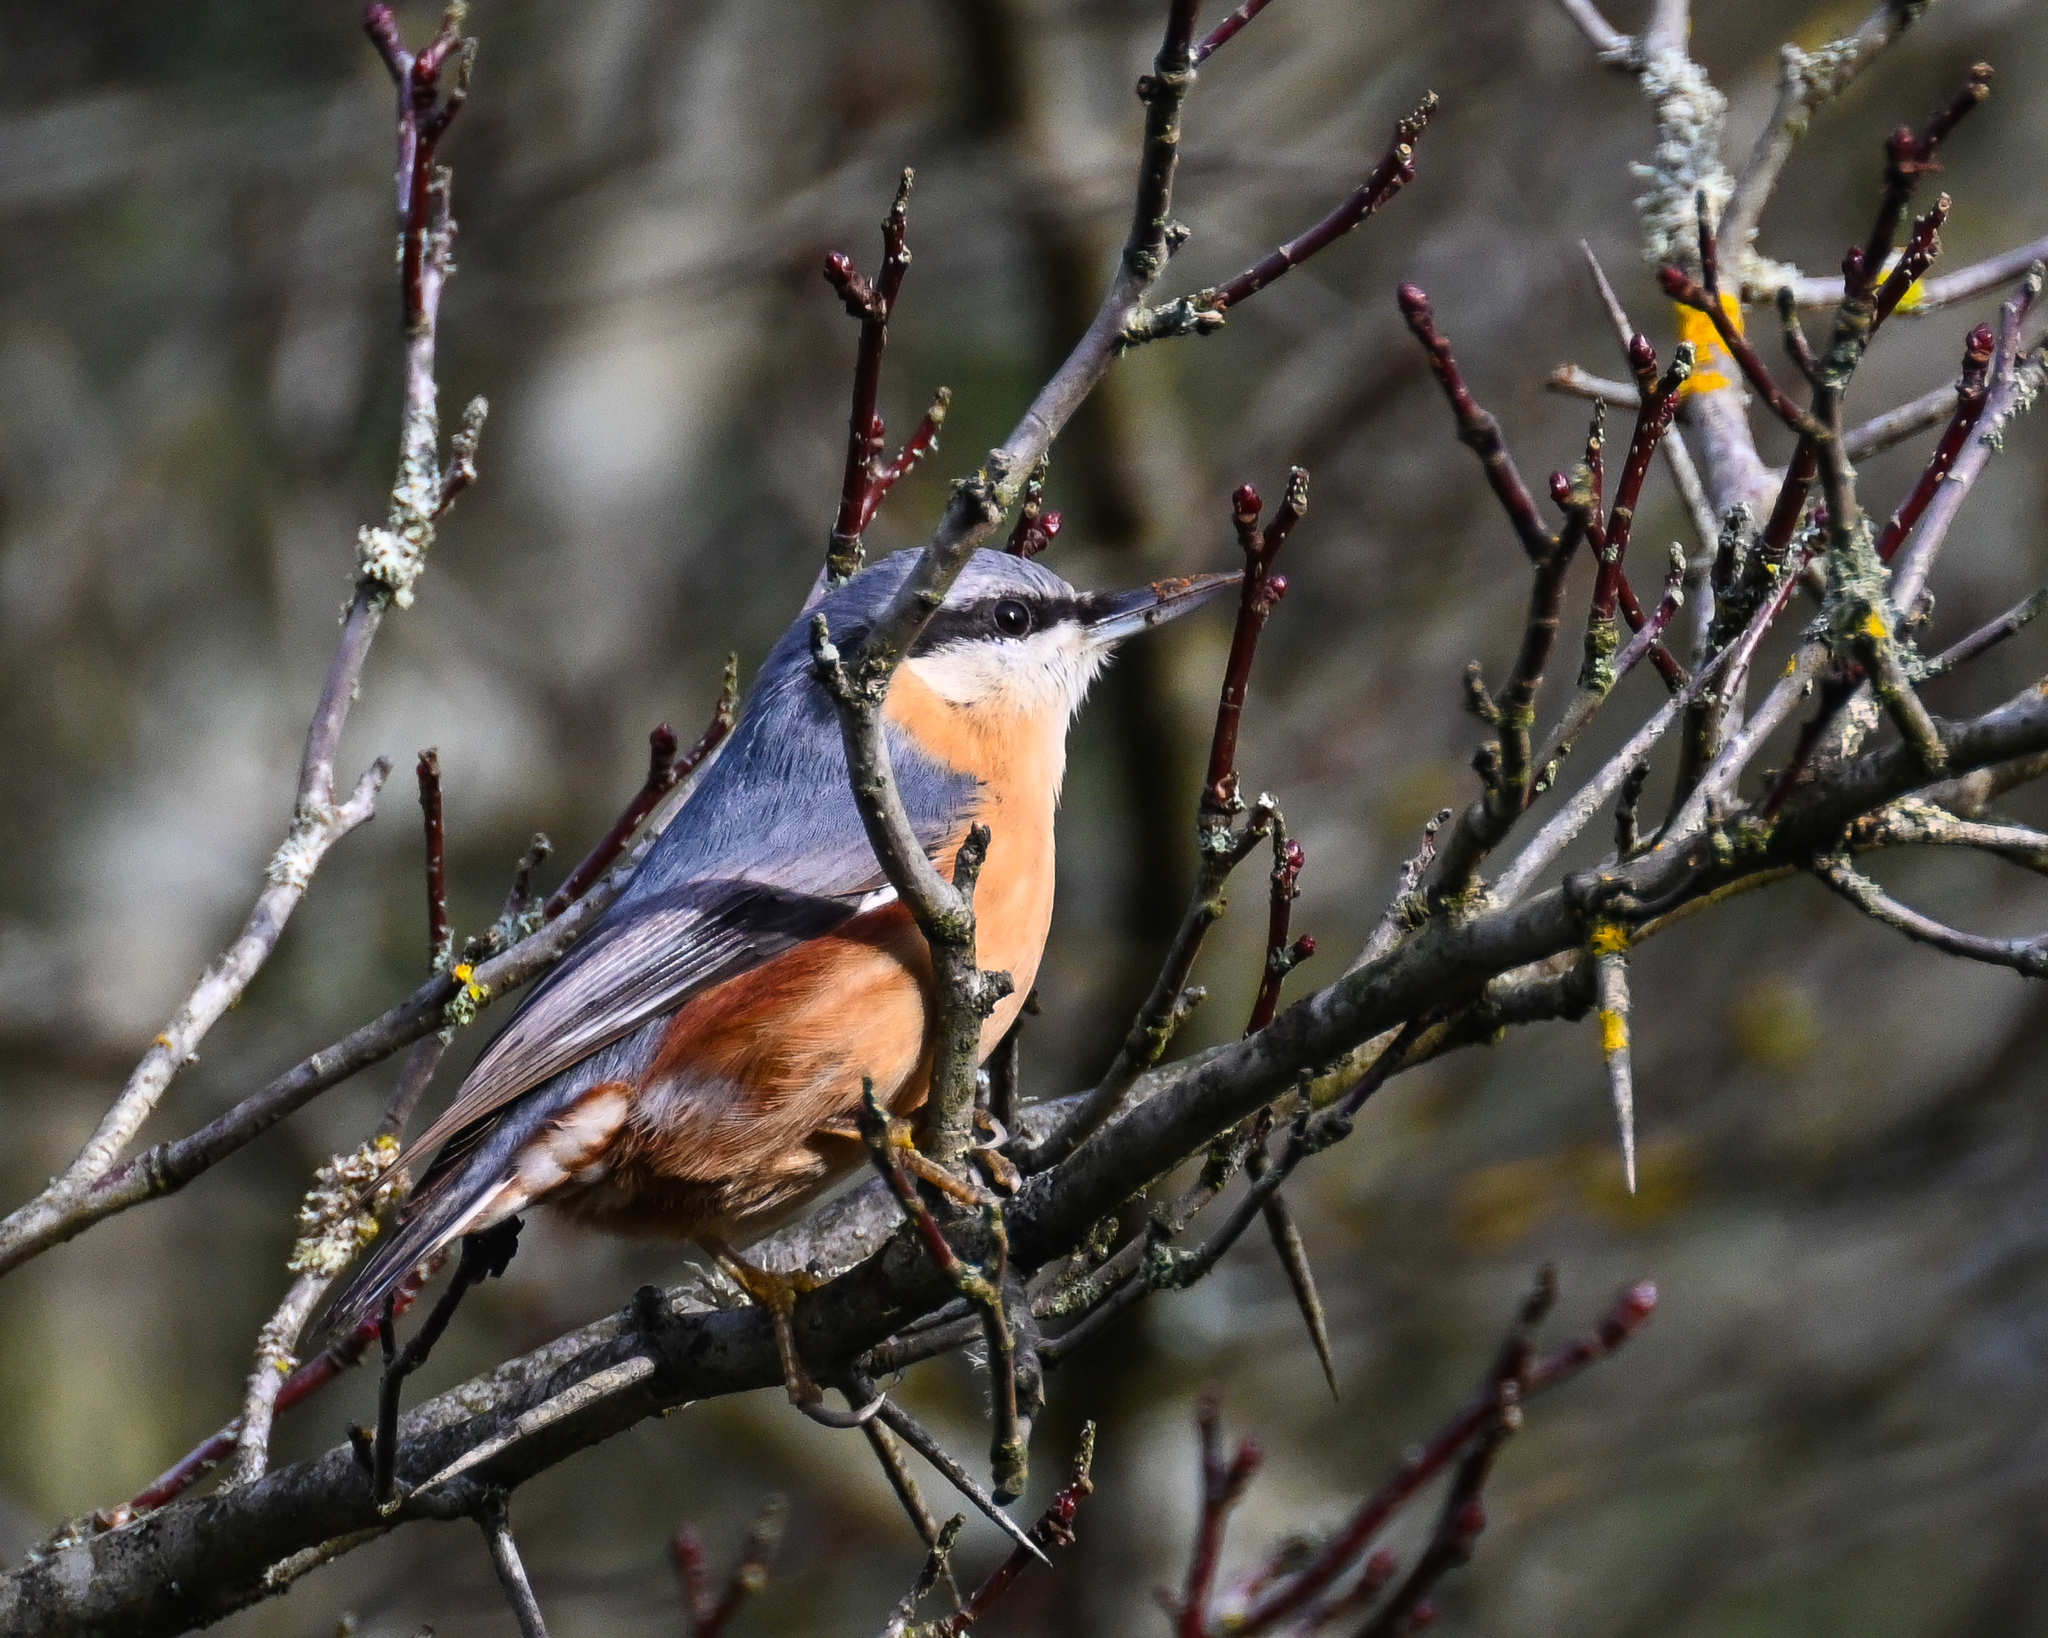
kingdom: Animalia
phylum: Chordata
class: Aves
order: Passeriformes
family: Sittidae
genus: Sitta
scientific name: Sitta europaea
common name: Eurasian nuthatch
